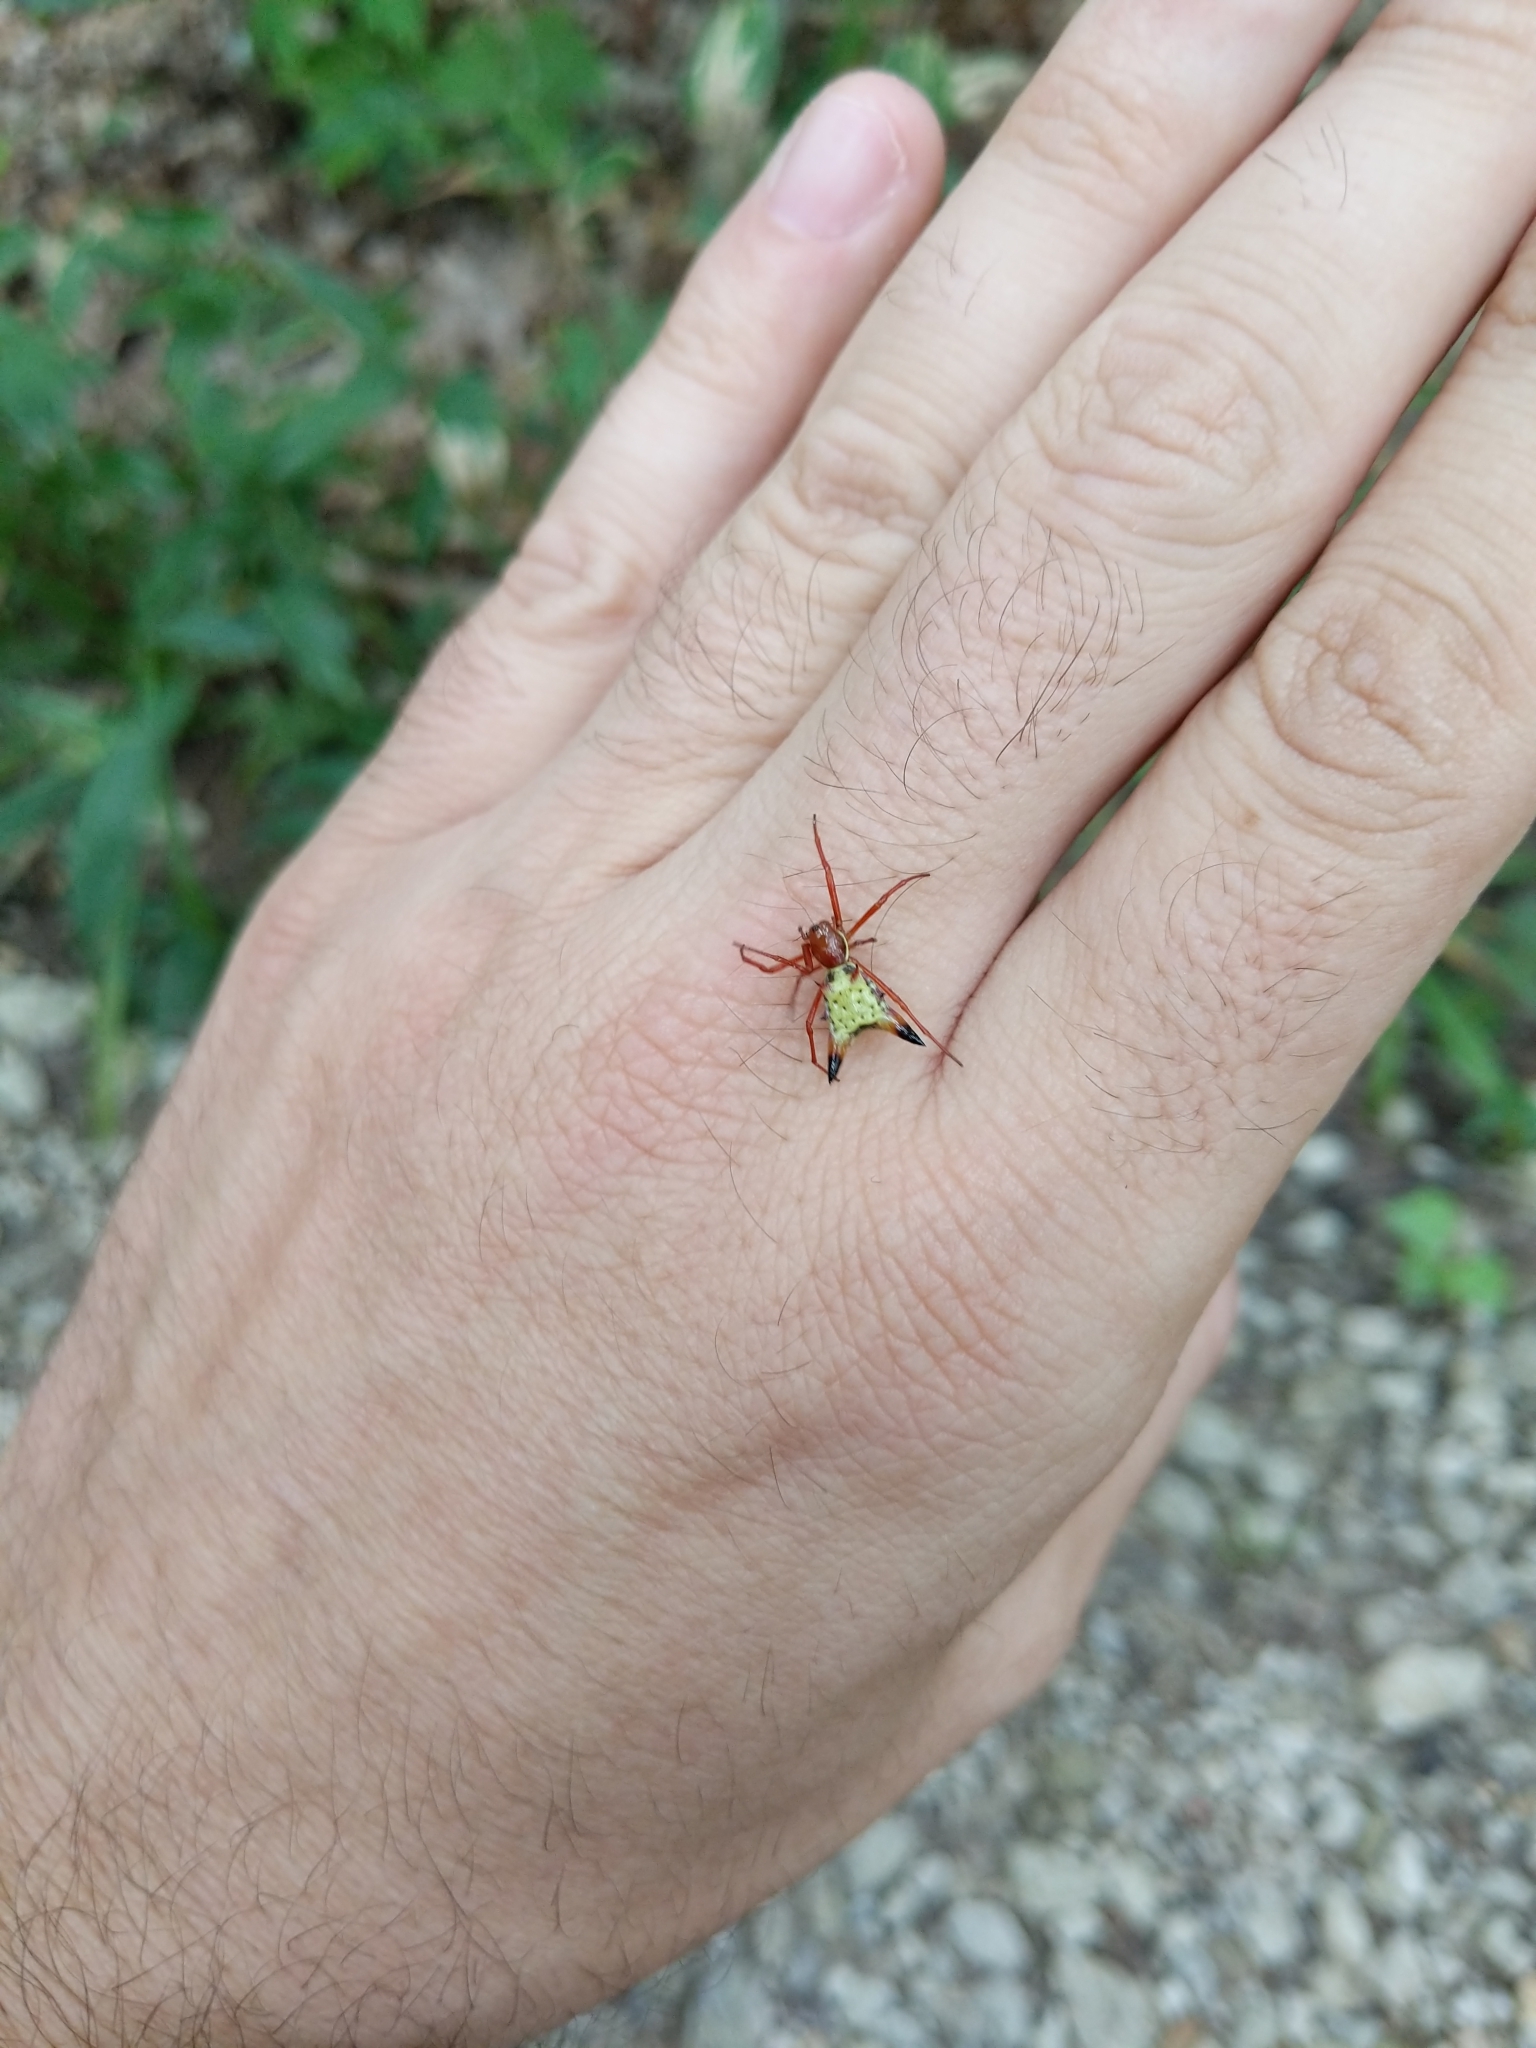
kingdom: Animalia
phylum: Arthropoda
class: Arachnida
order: Araneae
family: Araneidae
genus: Micrathena
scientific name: Micrathena sagittata
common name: Orb weavers
